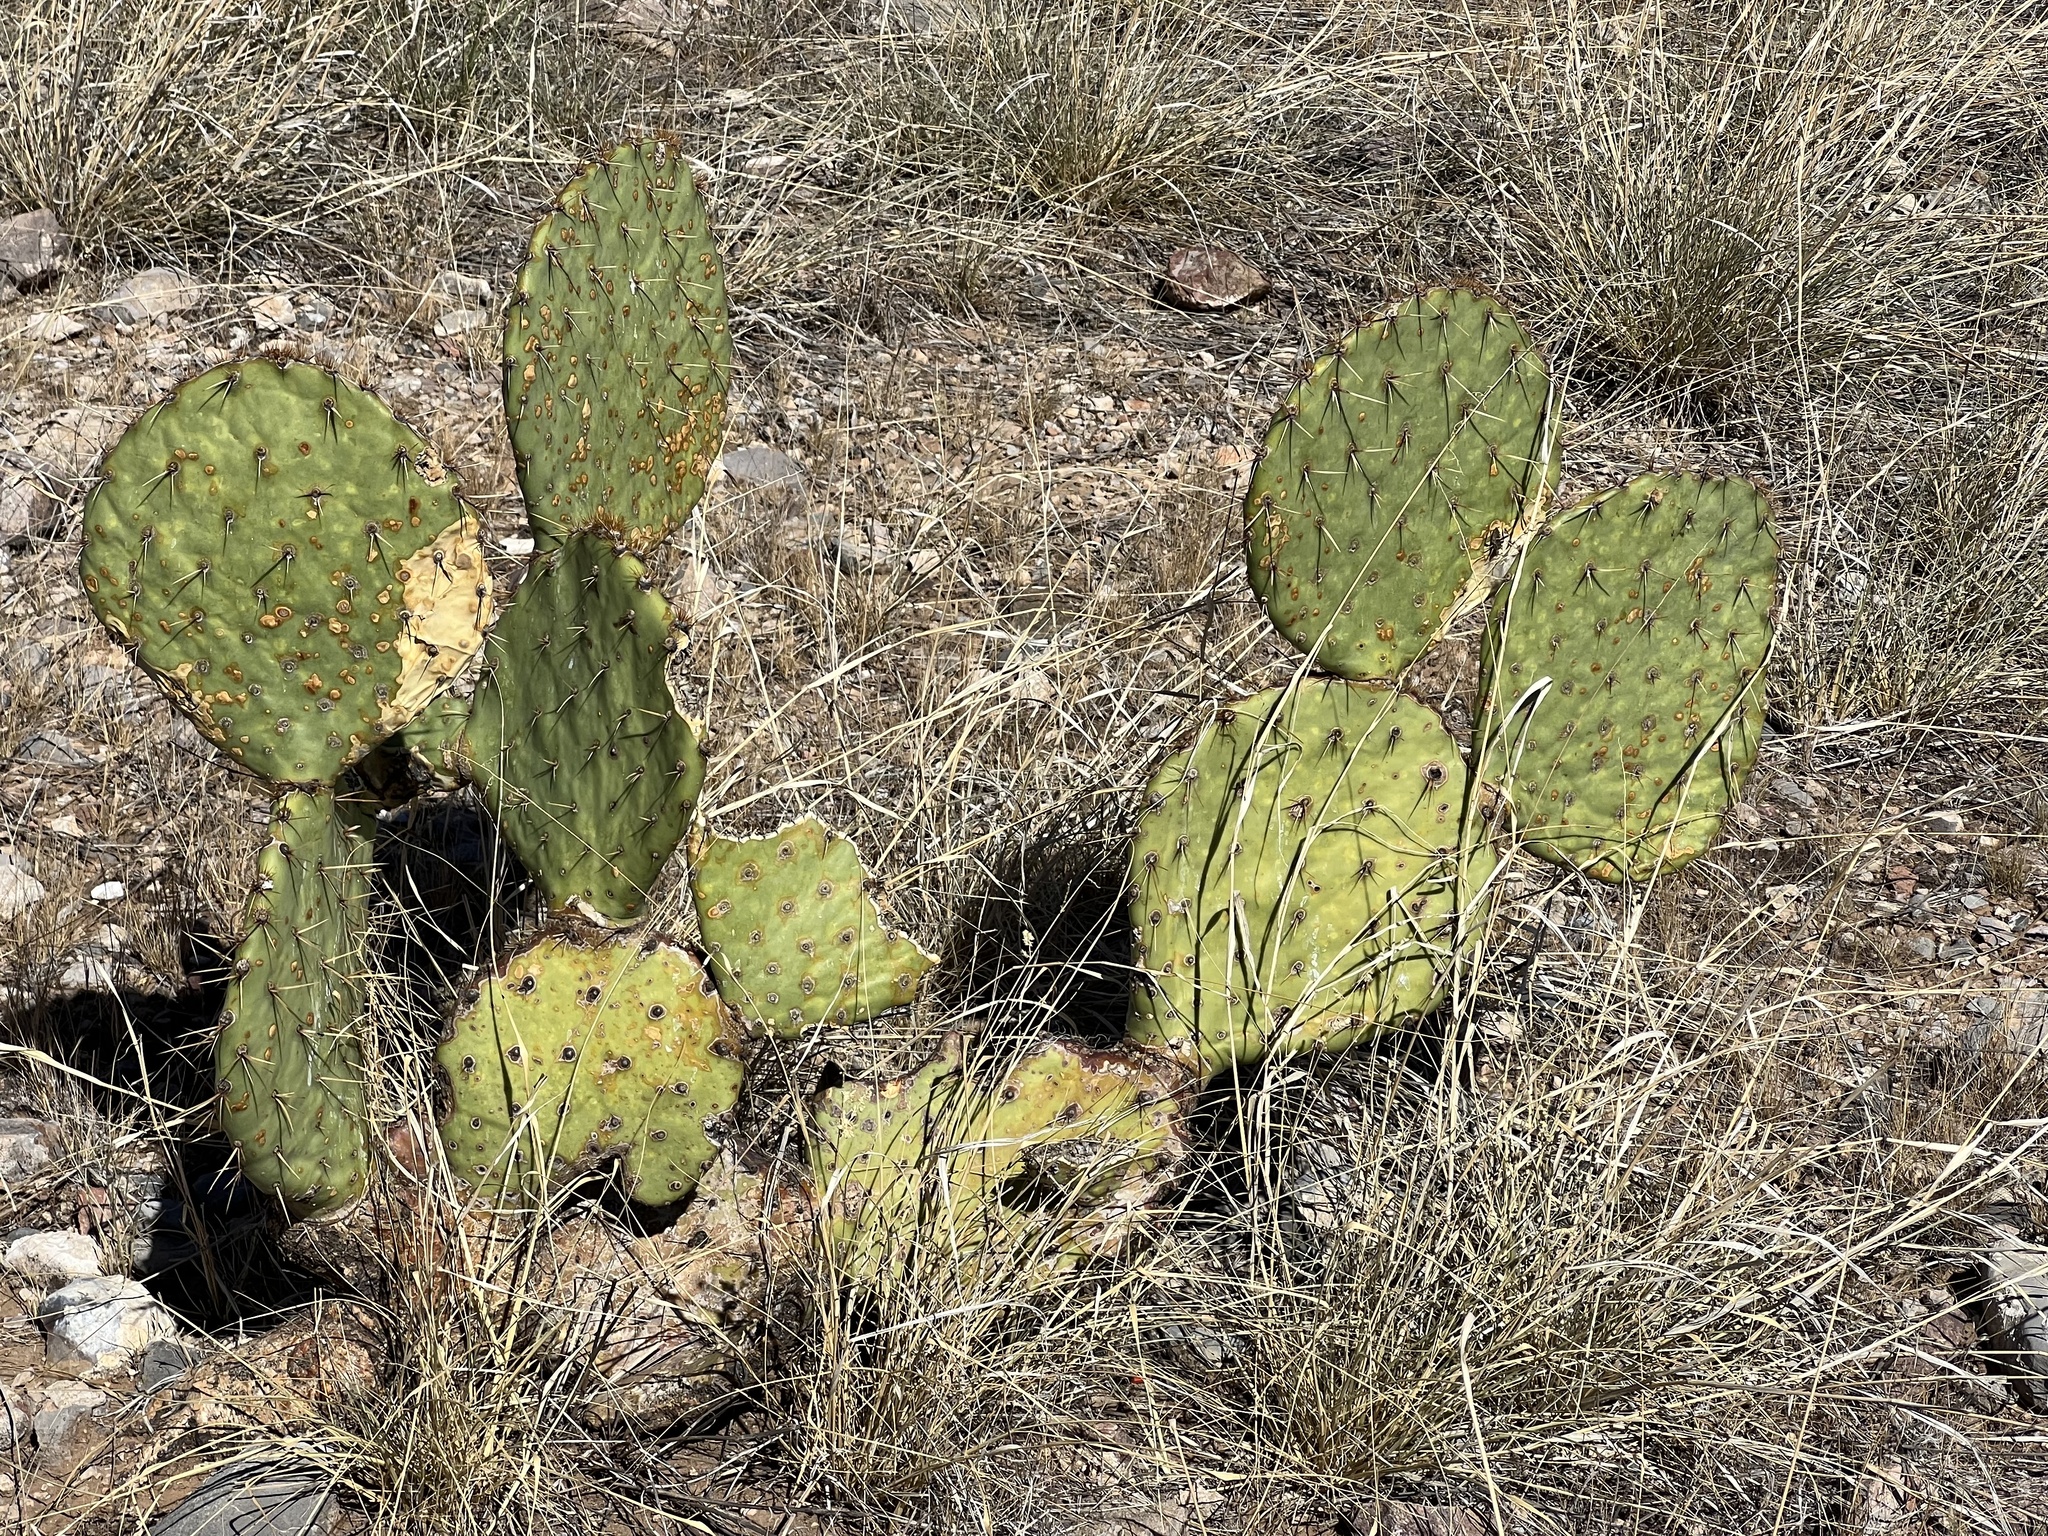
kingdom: Plantae
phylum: Tracheophyta
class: Magnoliopsida
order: Caryophyllales
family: Cactaceae
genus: Opuntia
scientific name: Opuntia engelmannii
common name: Cactus-apple
